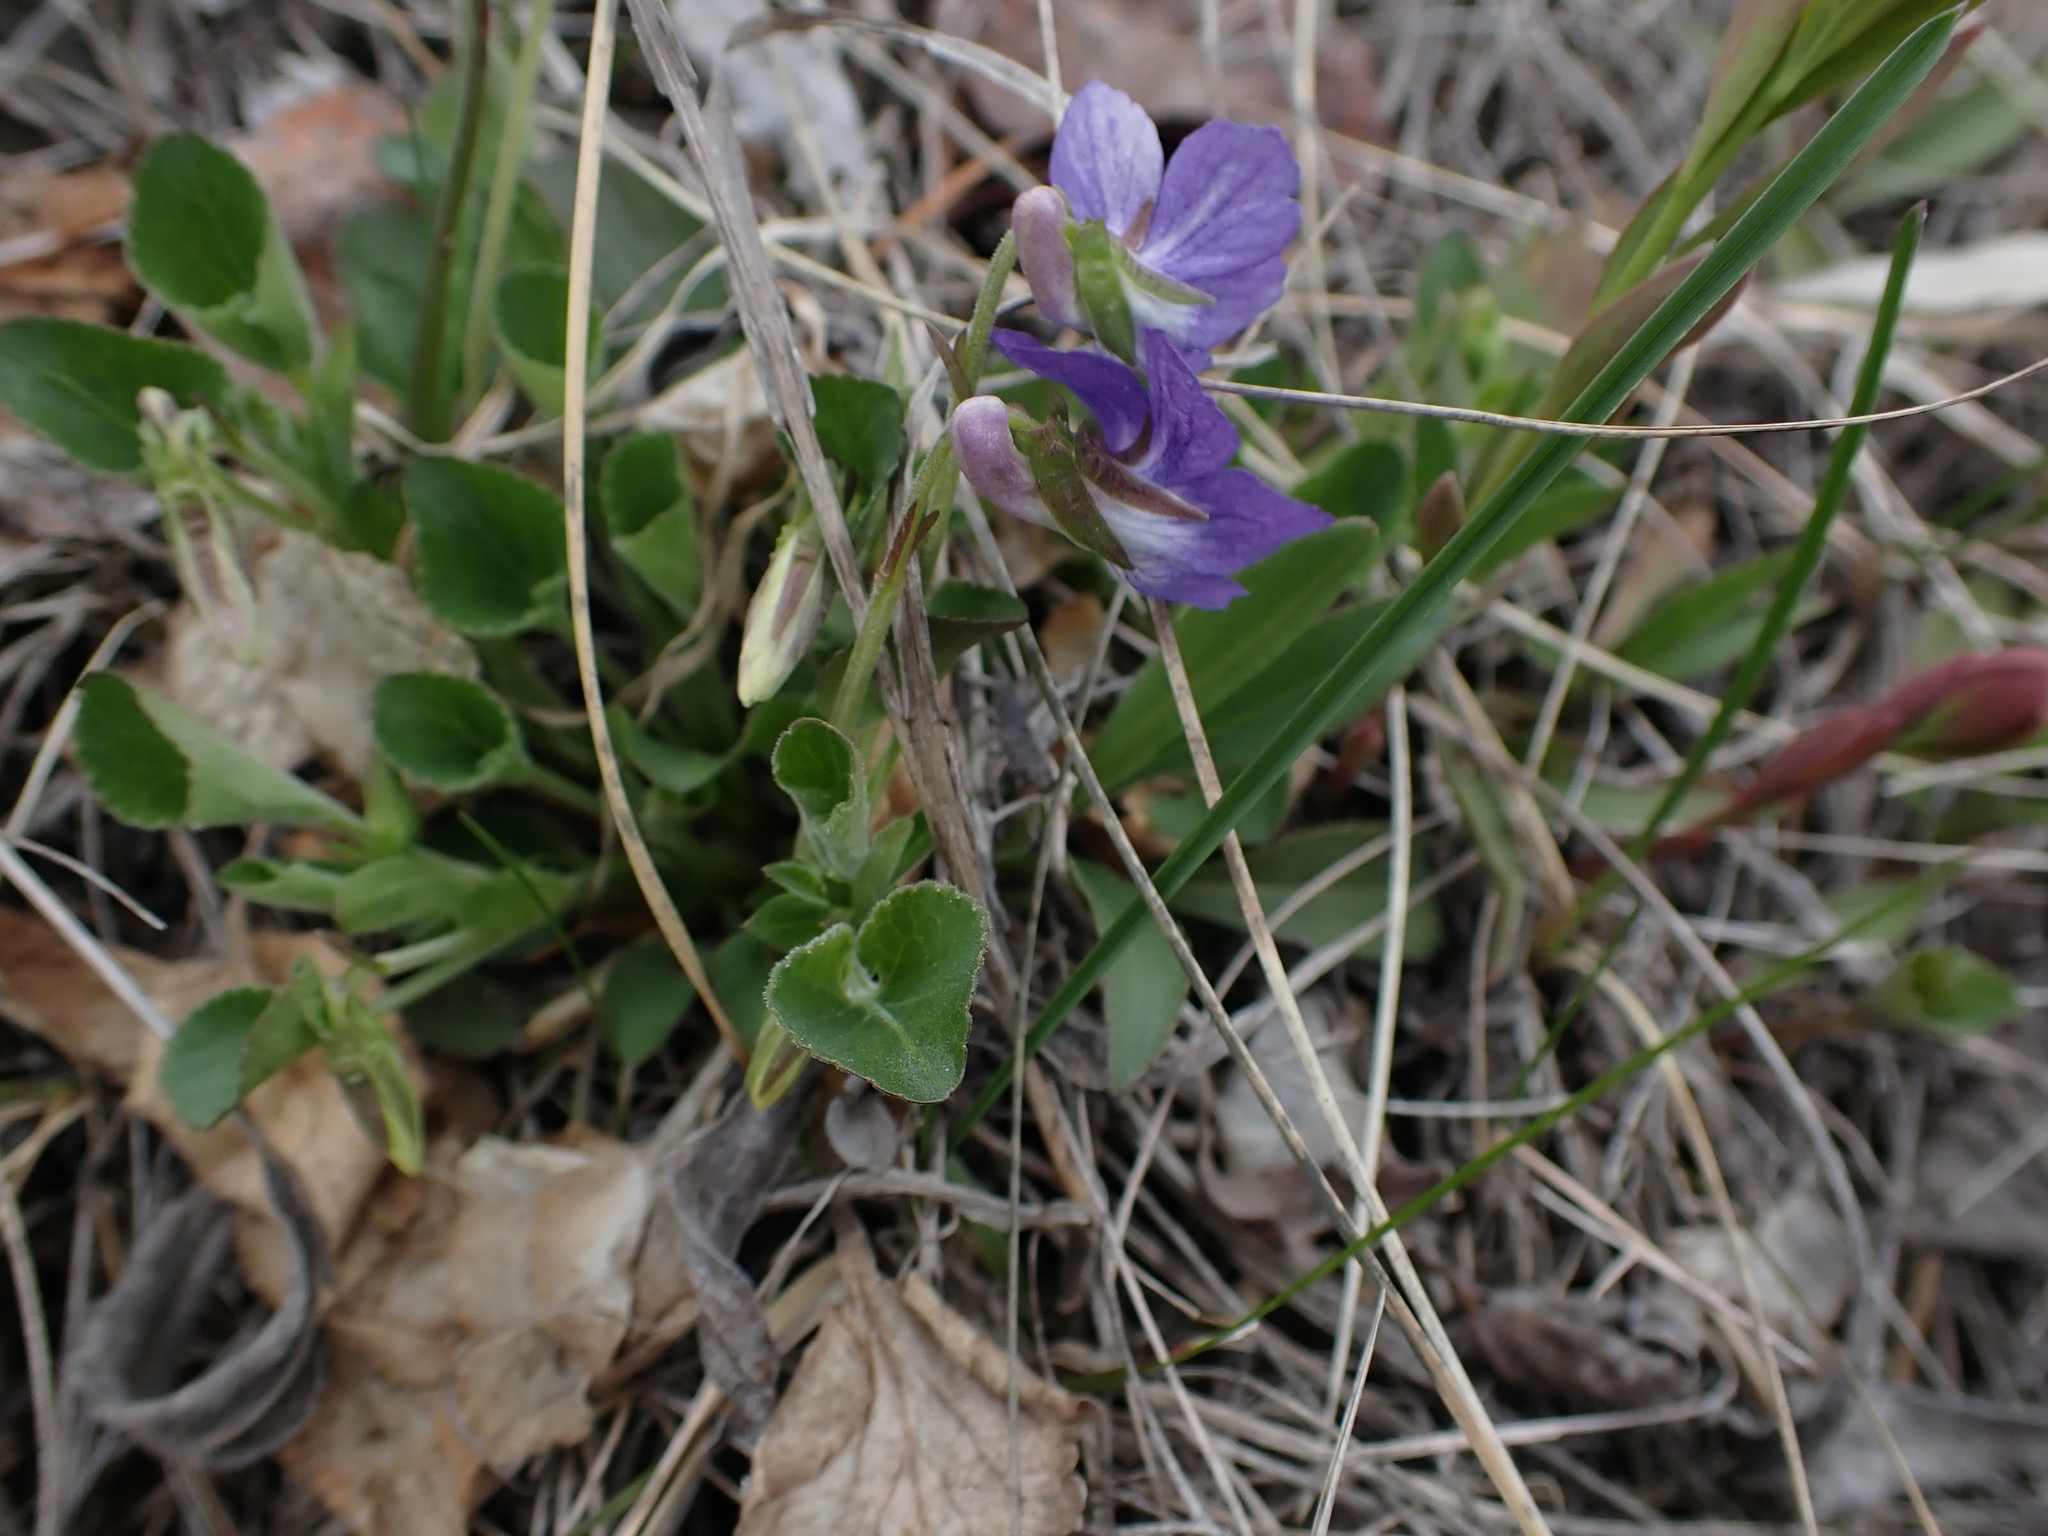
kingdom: Plantae
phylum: Tracheophyta
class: Magnoliopsida
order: Malpighiales
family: Violaceae
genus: Viola
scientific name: Viola adunca
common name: Sand violet
